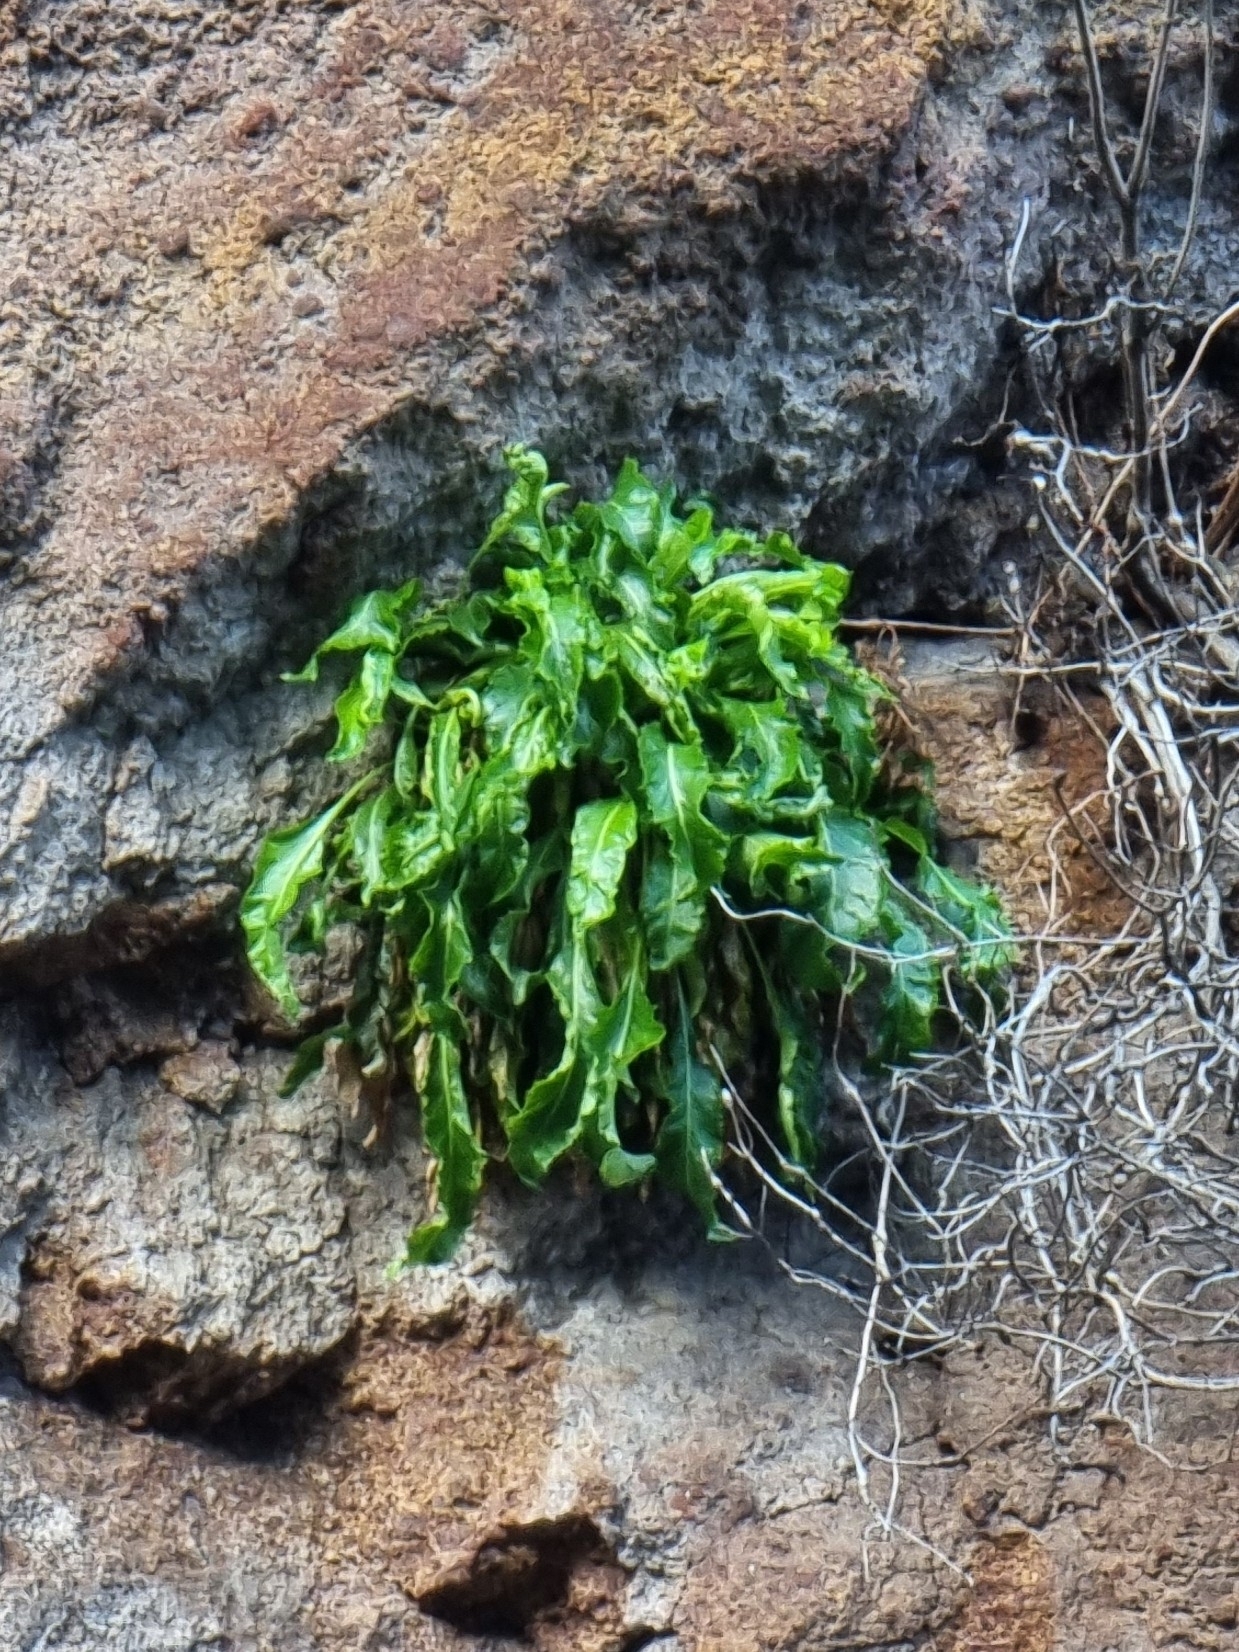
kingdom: Plantae
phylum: Tracheophyta
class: Magnoliopsida
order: Asterales
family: Campanulaceae
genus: Musschia
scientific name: Musschia aurea
